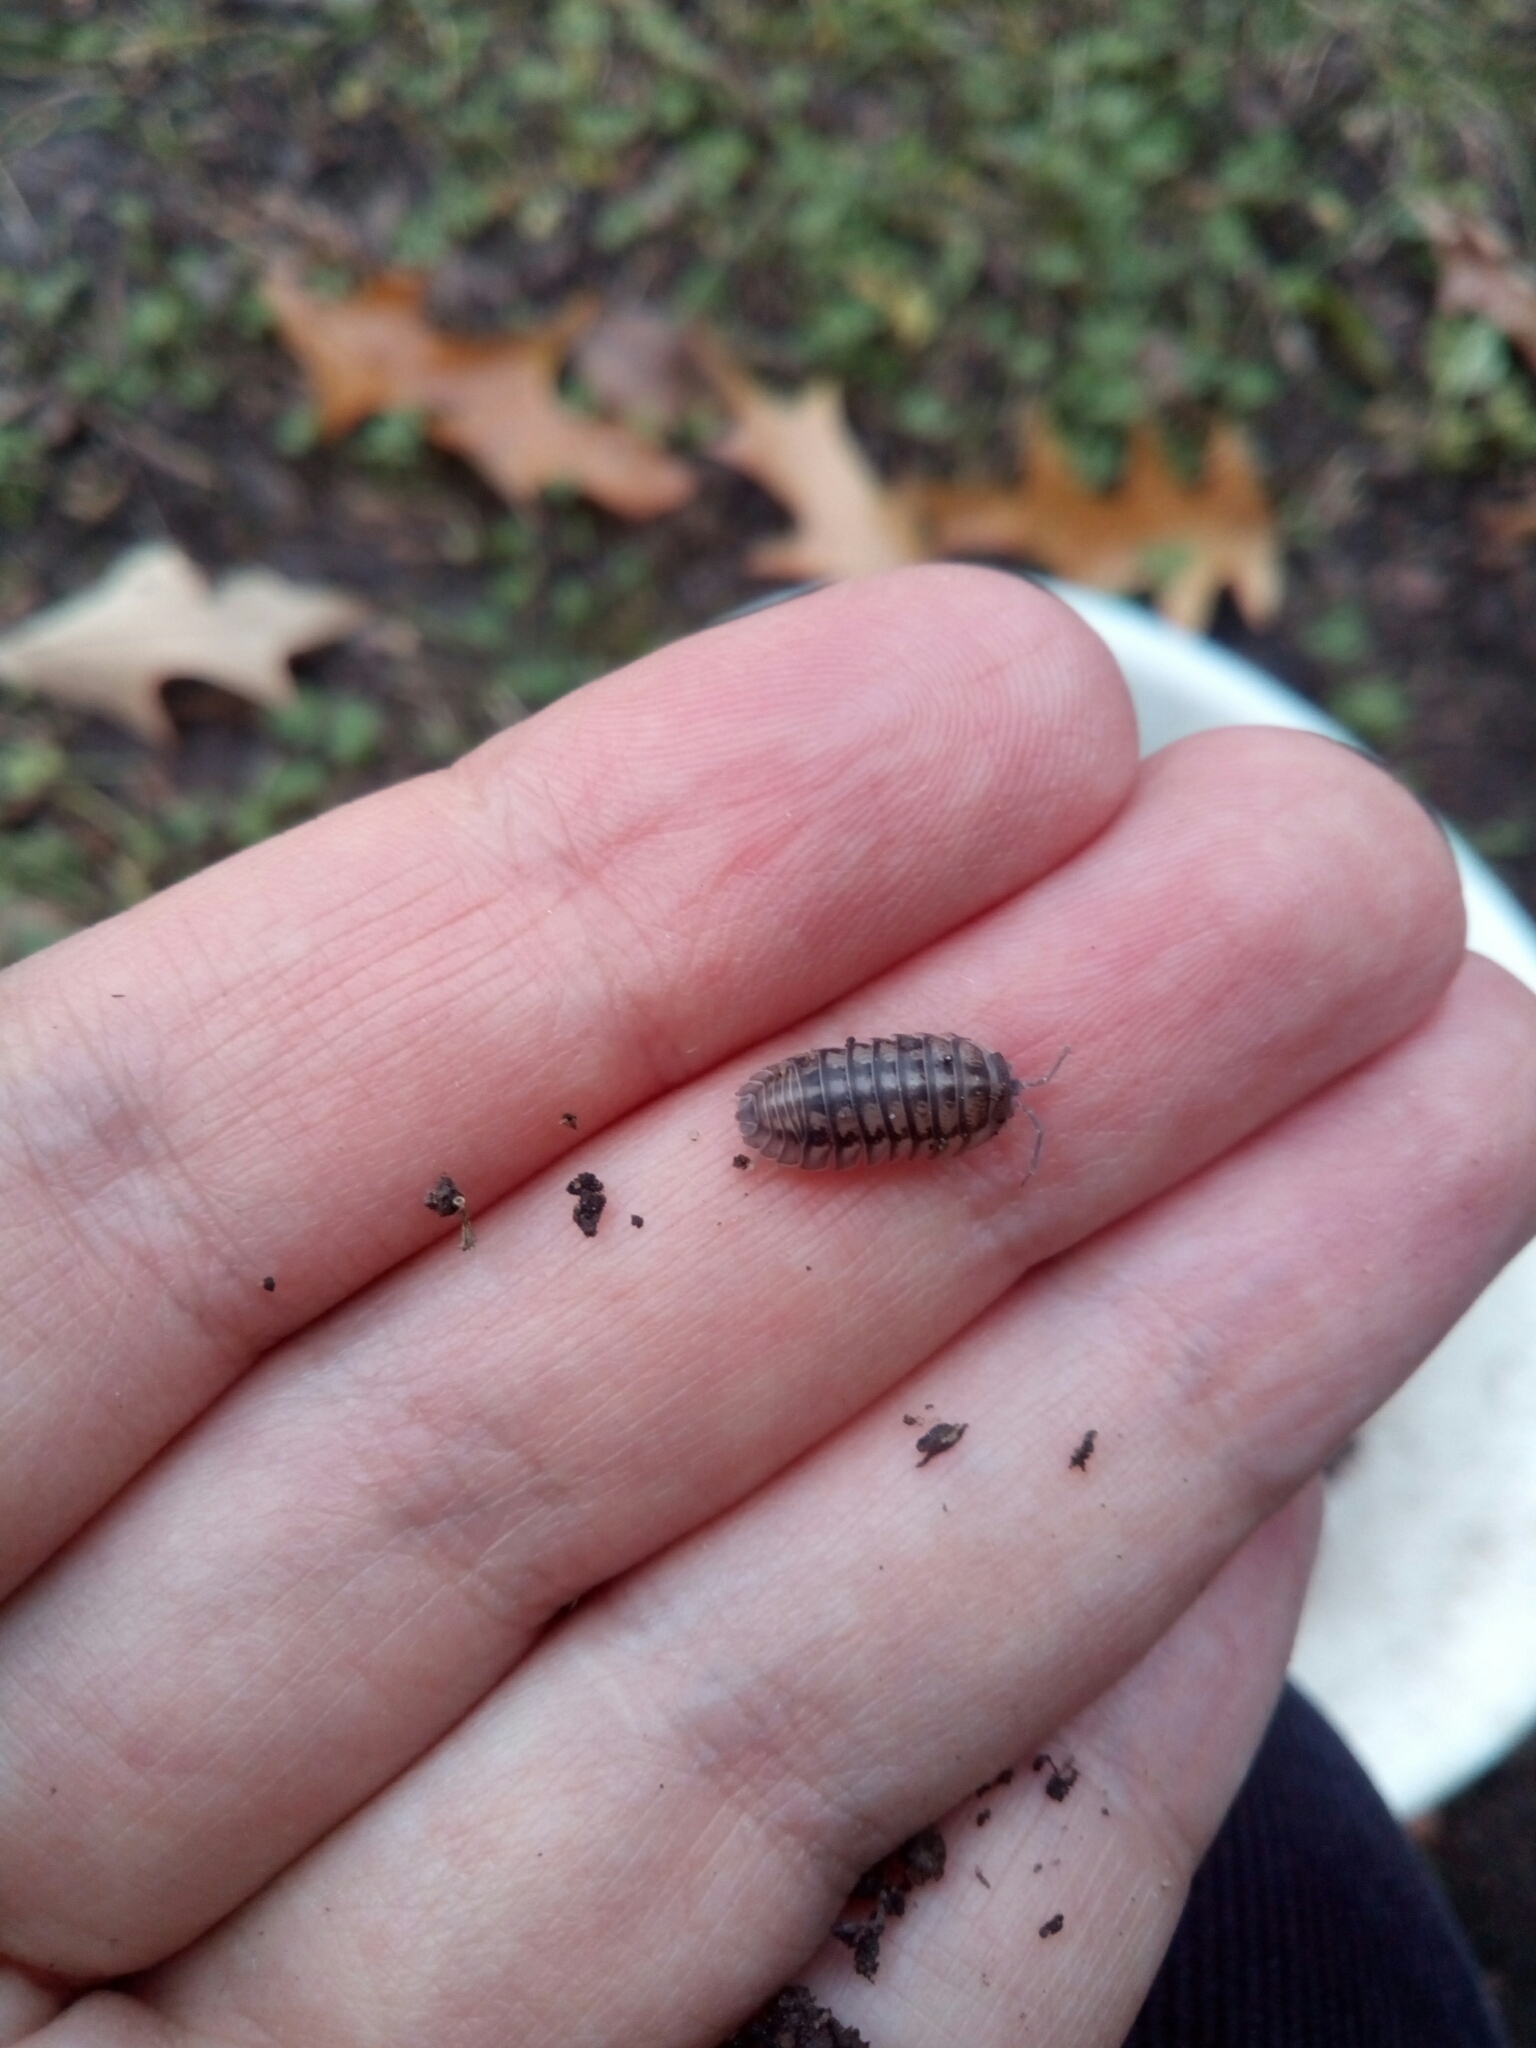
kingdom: Animalia
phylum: Arthropoda
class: Malacostraca
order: Isopoda
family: Armadillidiidae
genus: Armadillidium
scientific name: Armadillidium nasatum
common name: Isopod
